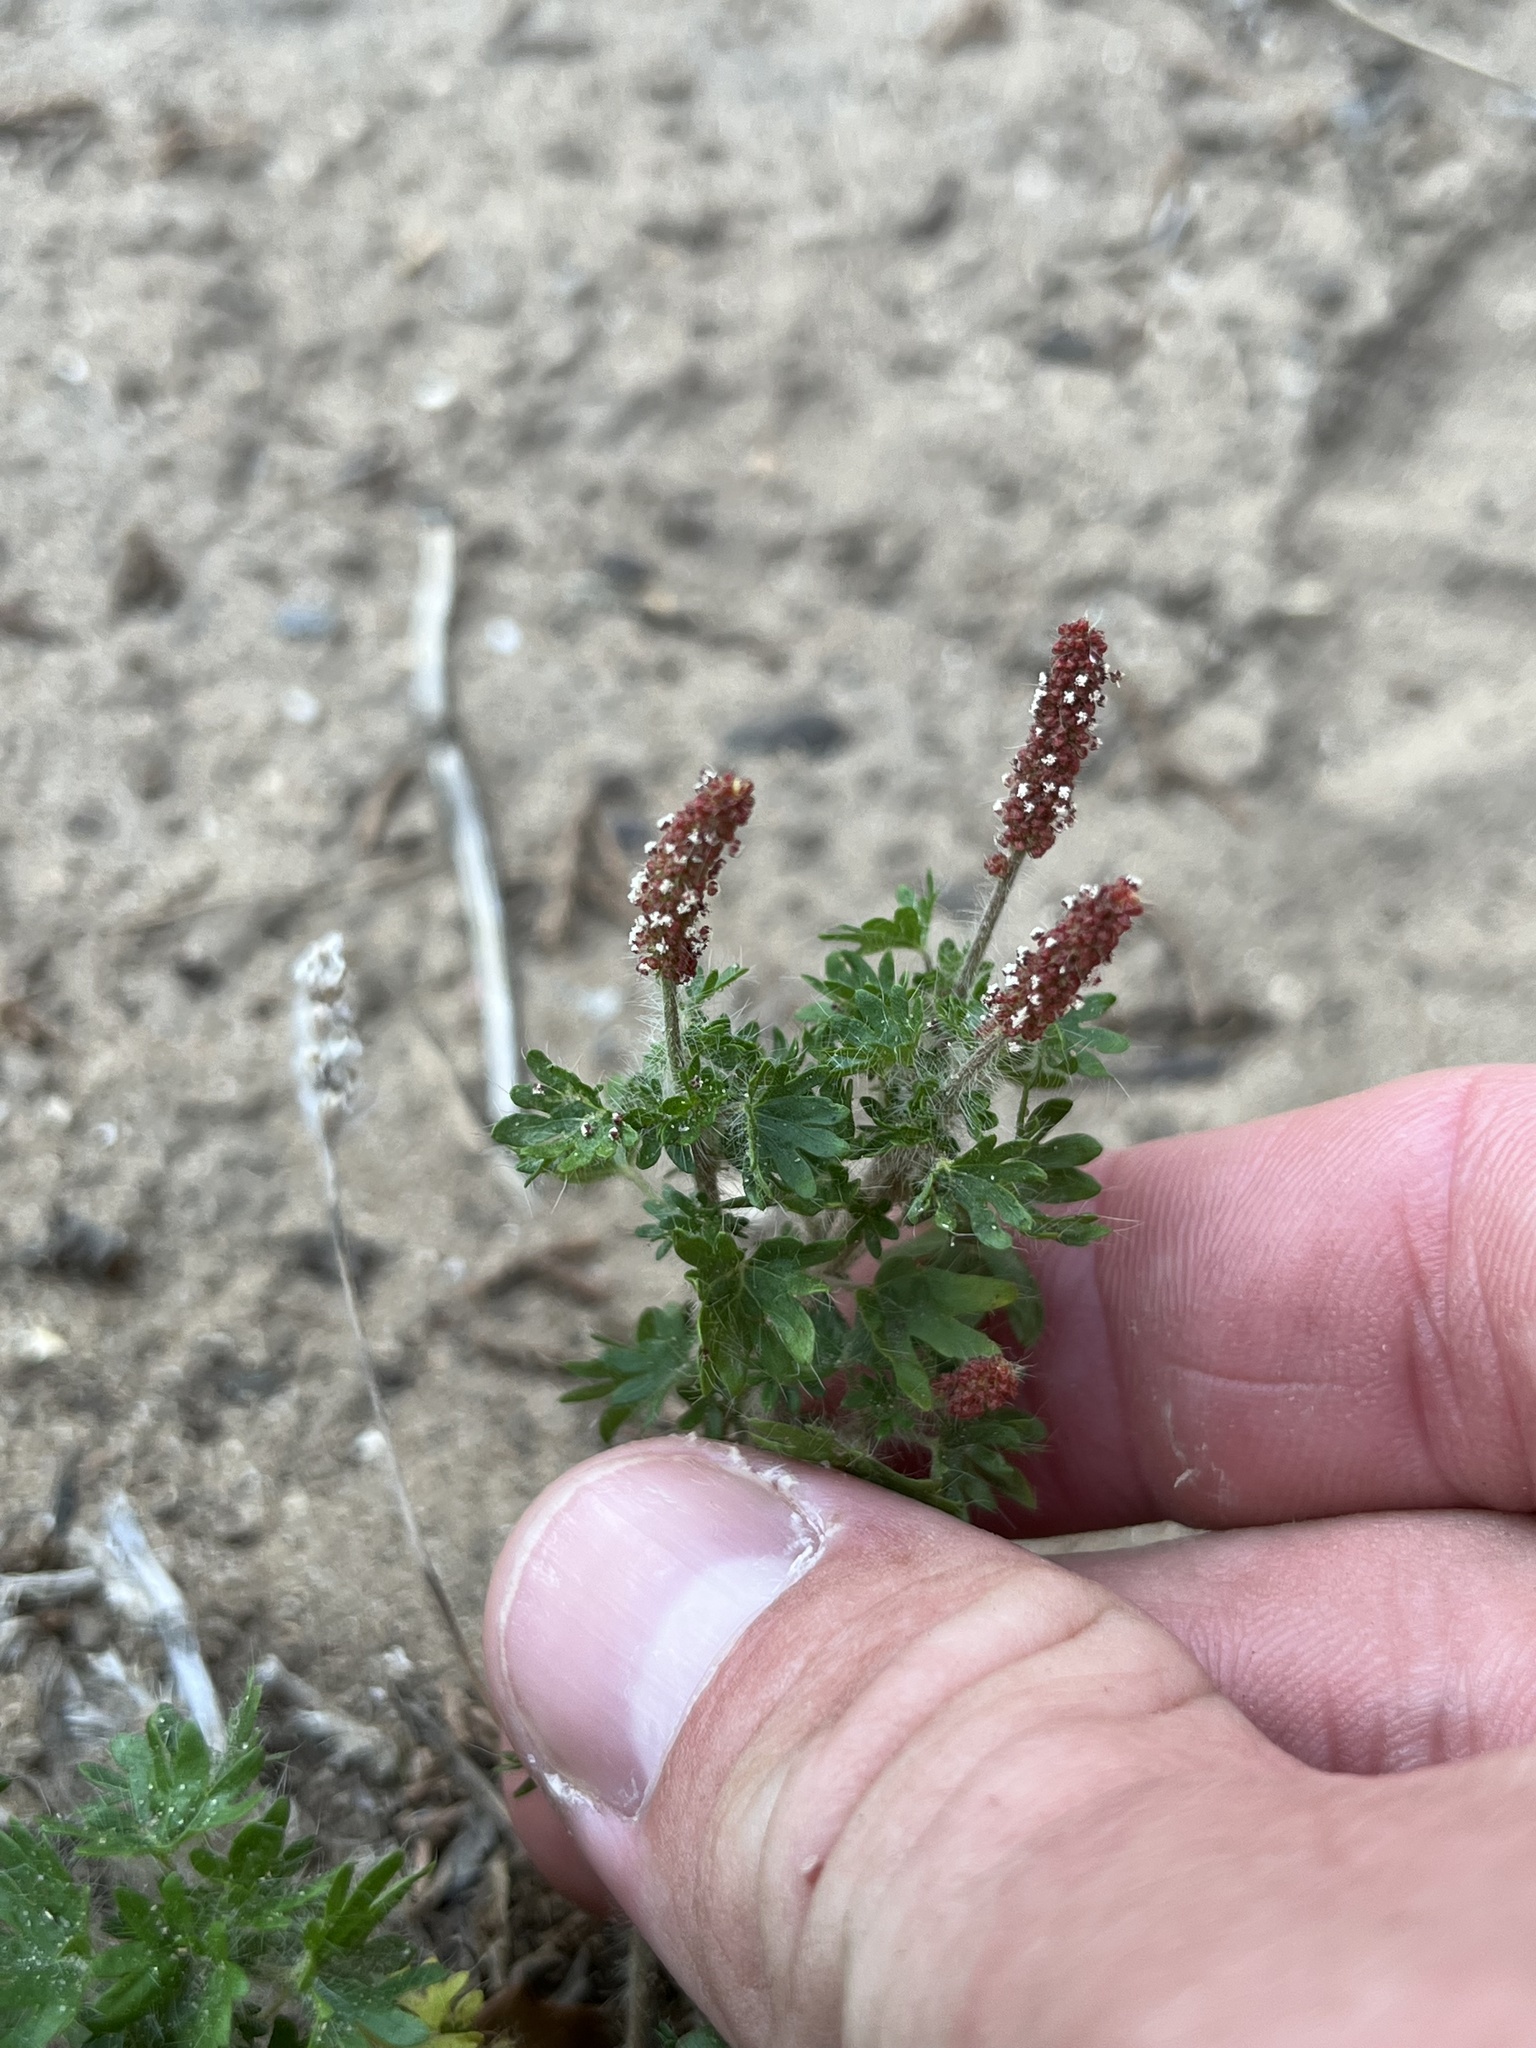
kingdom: Plantae
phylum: Tracheophyta
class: Magnoliopsida
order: Malpighiales
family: Euphorbiaceae
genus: Acalypha
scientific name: Acalypha radians
